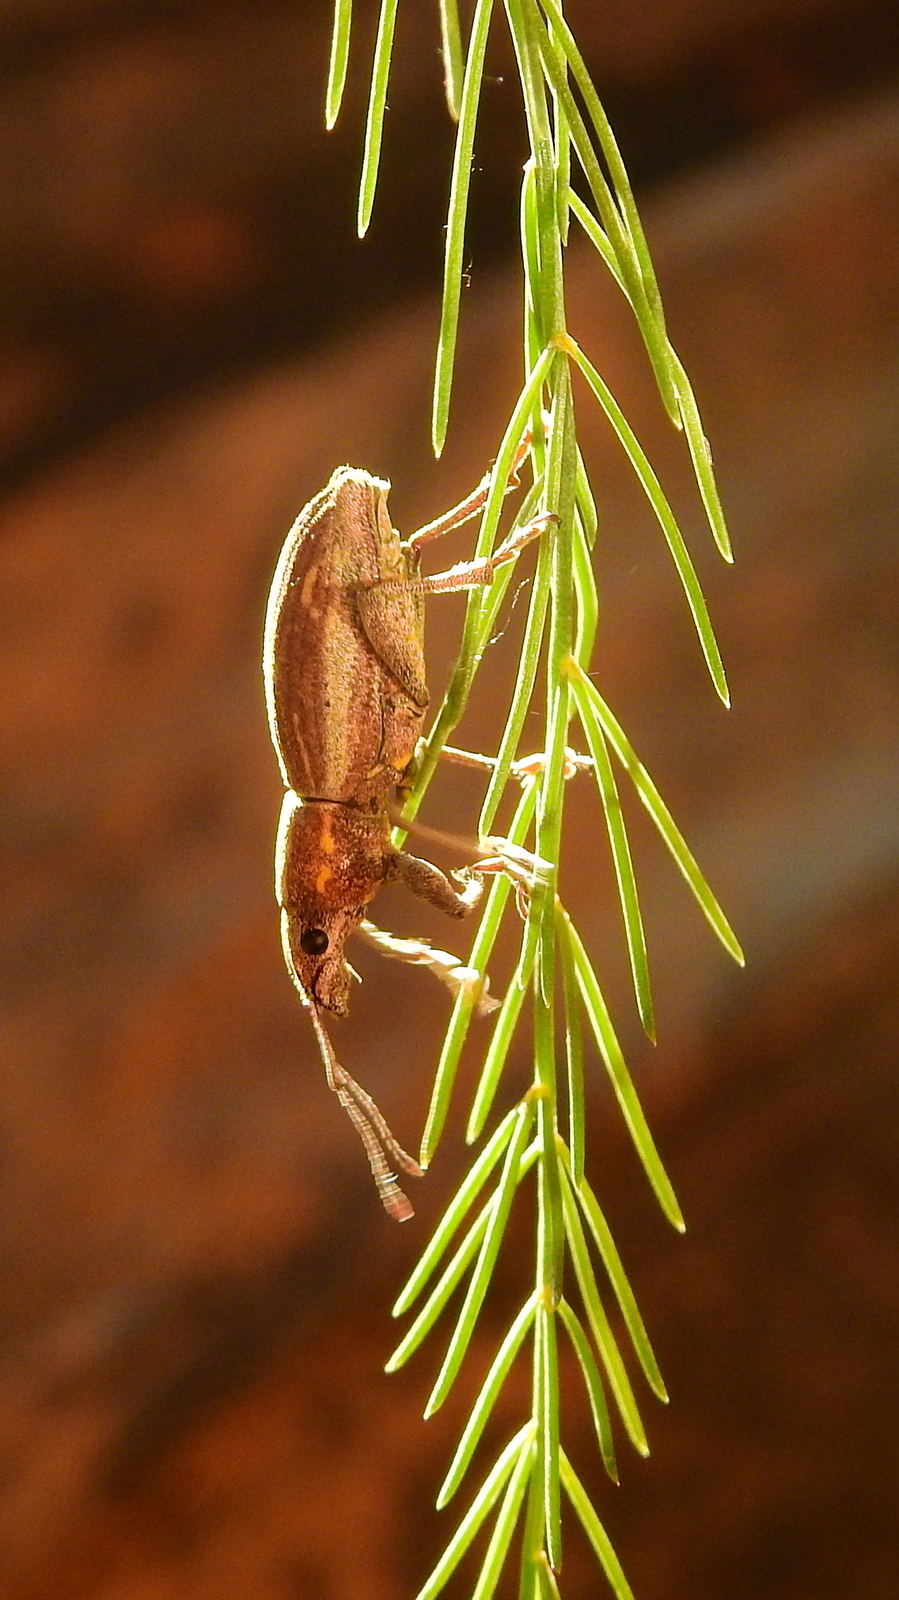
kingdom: Animalia
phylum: Arthropoda
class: Insecta
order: Coleoptera
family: Curculionidae
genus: Naupactus
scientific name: Naupactus xanthographus
